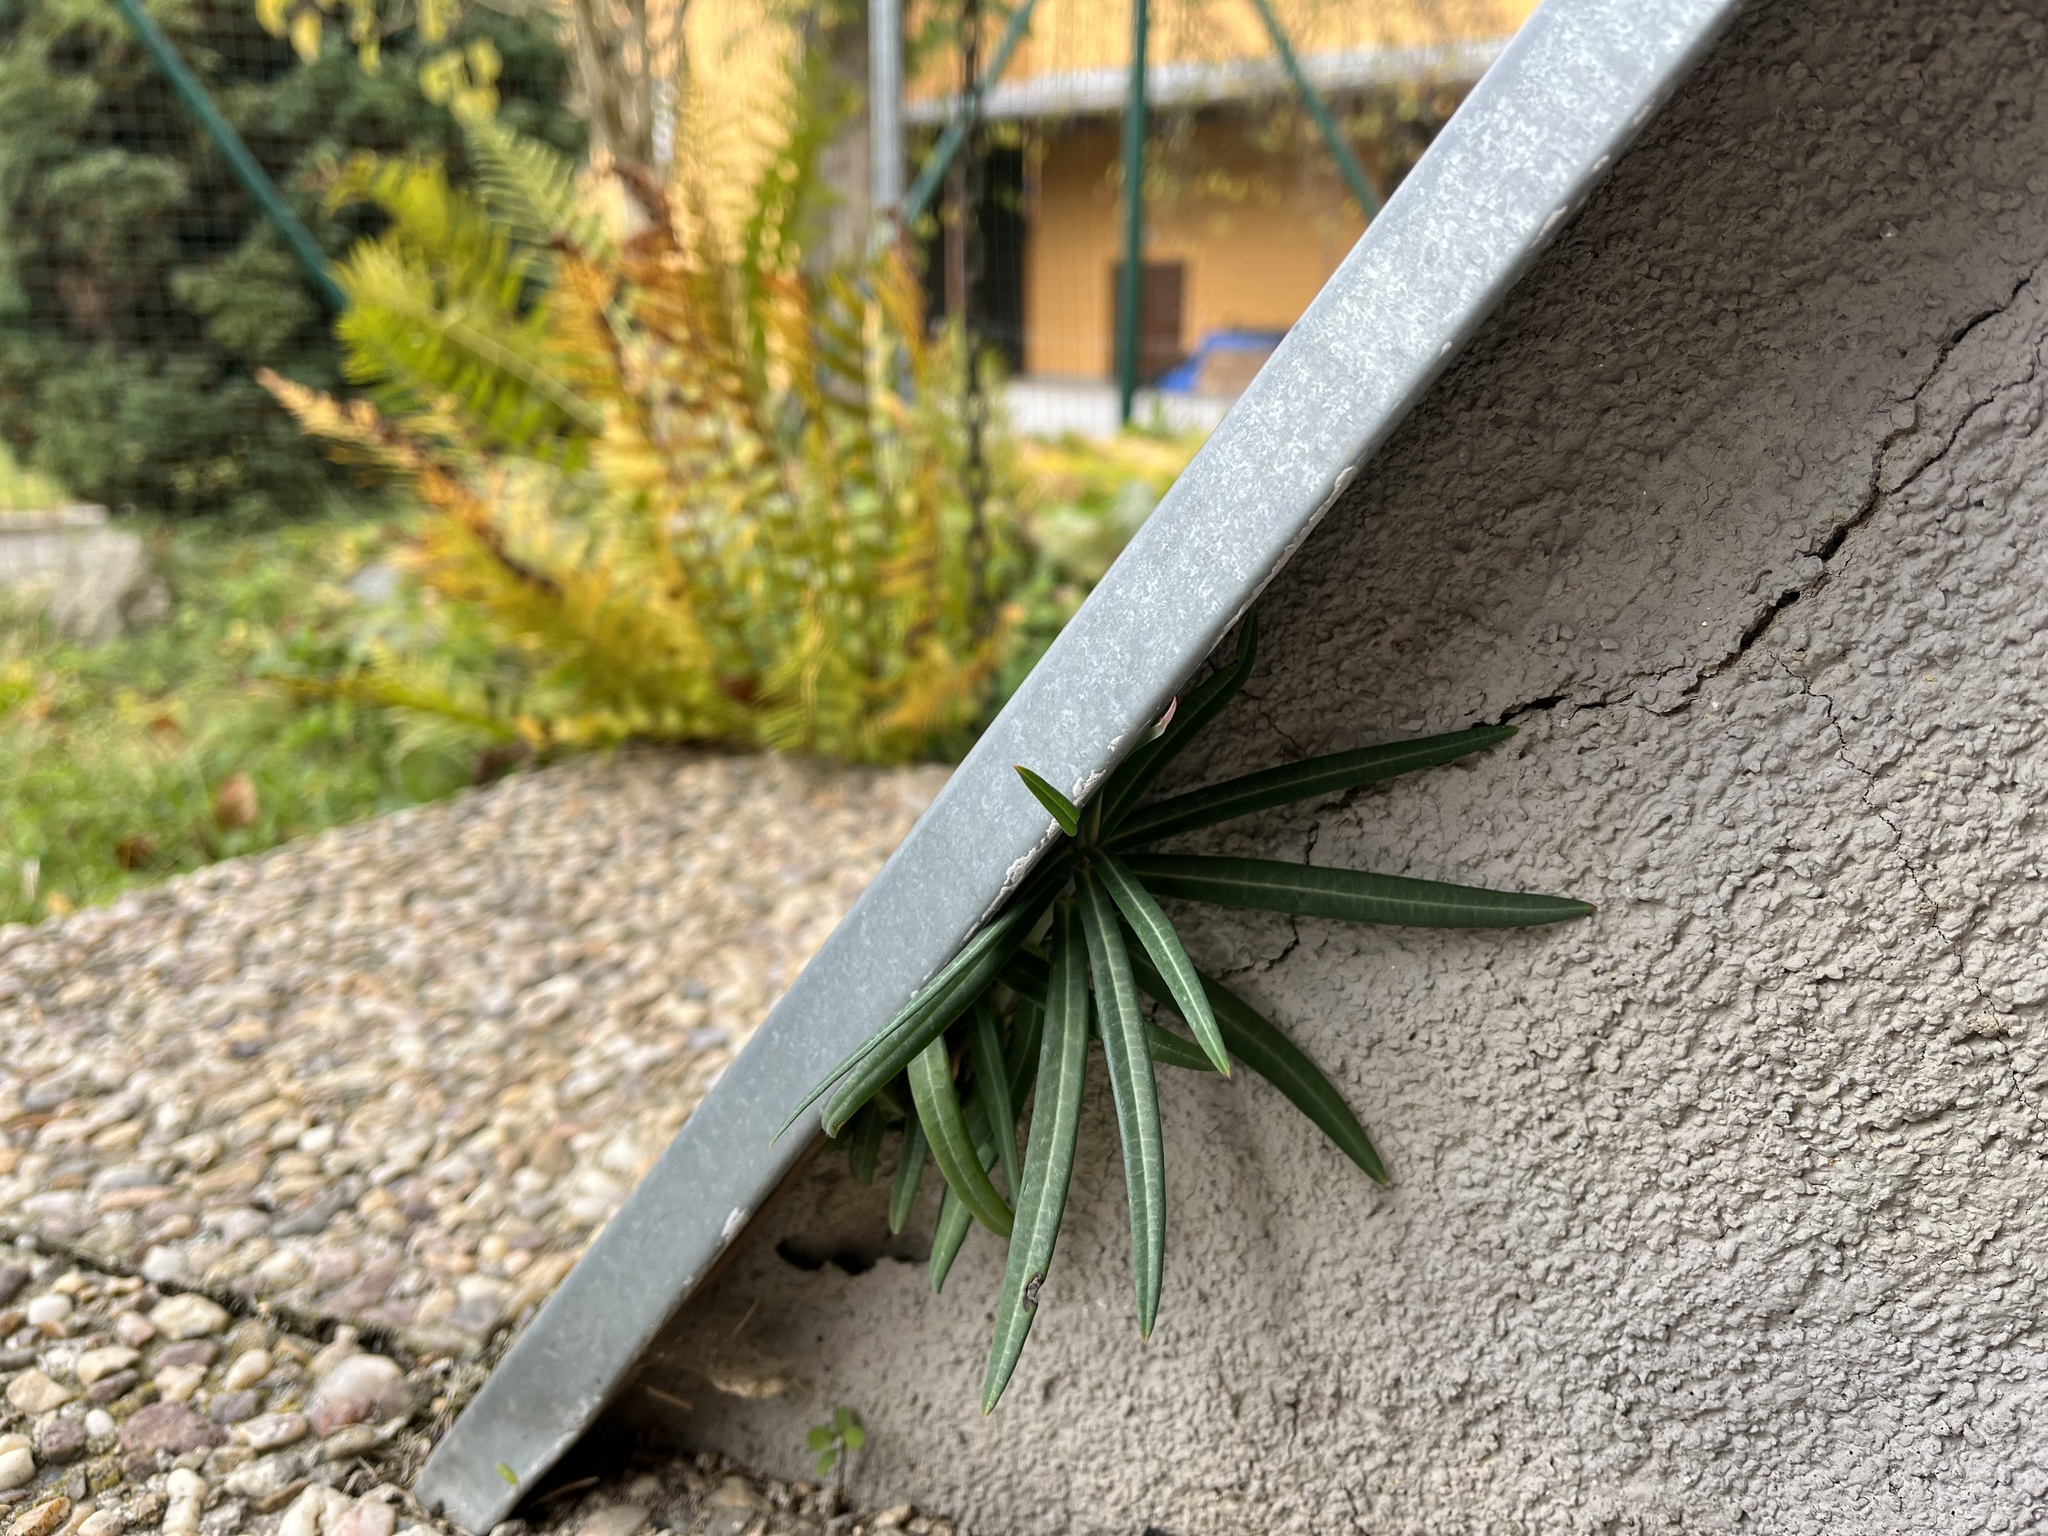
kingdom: Plantae
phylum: Tracheophyta
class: Magnoliopsida
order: Malpighiales
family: Euphorbiaceae
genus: Euphorbia
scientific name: Euphorbia lathyris
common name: Caper spurge
